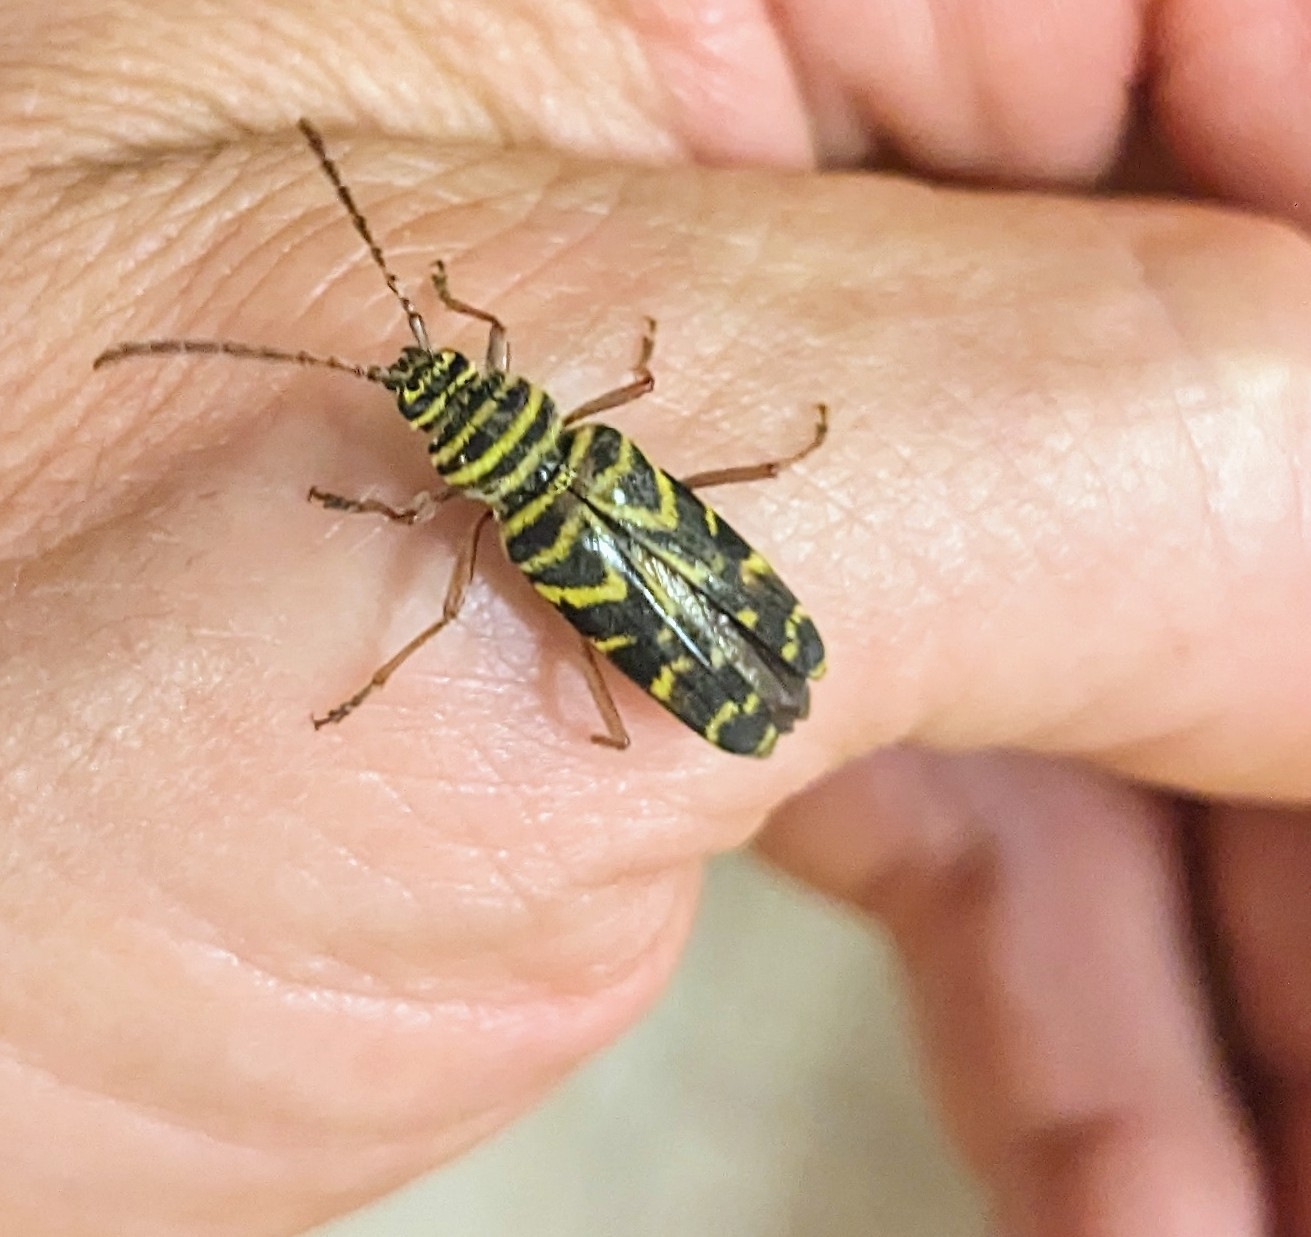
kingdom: Animalia
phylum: Arthropoda
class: Insecta
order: Coleoptera
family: Cerambycidae
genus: Megacyllene
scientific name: Megacyllene robiniae
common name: Locust borer
